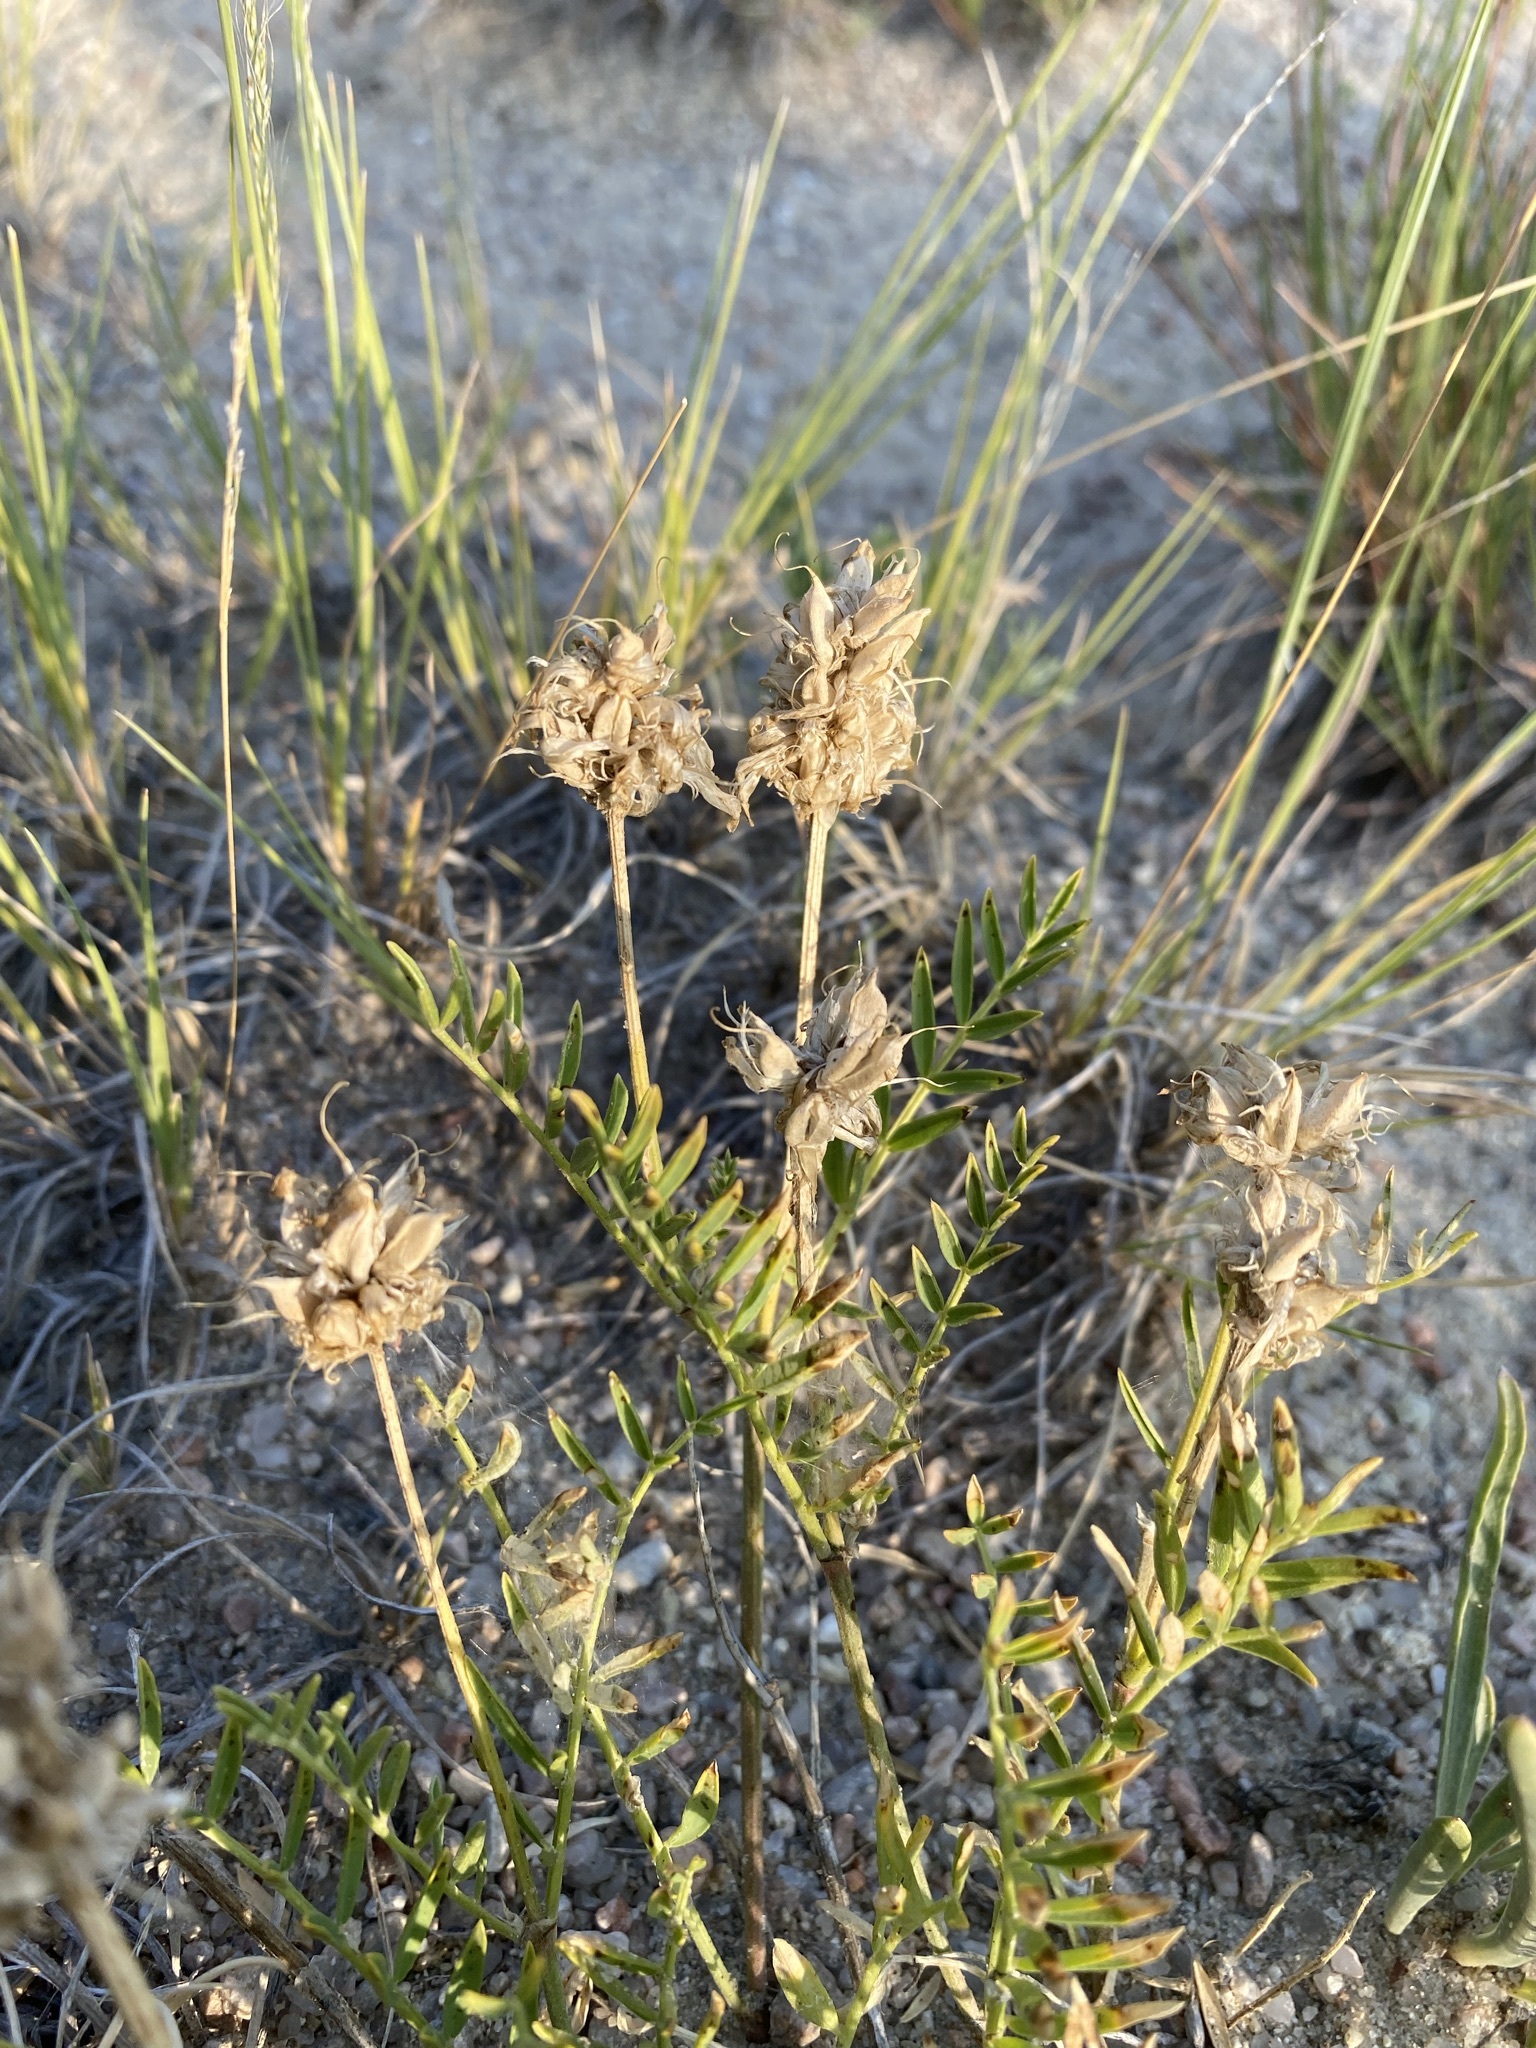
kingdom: Plantae
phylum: Tracheophyta
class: Magnoliopsida
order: Fabales
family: Fabaceae
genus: Astragalus
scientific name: Astragalus laxmannii
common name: Laxmann's milk-vetch
